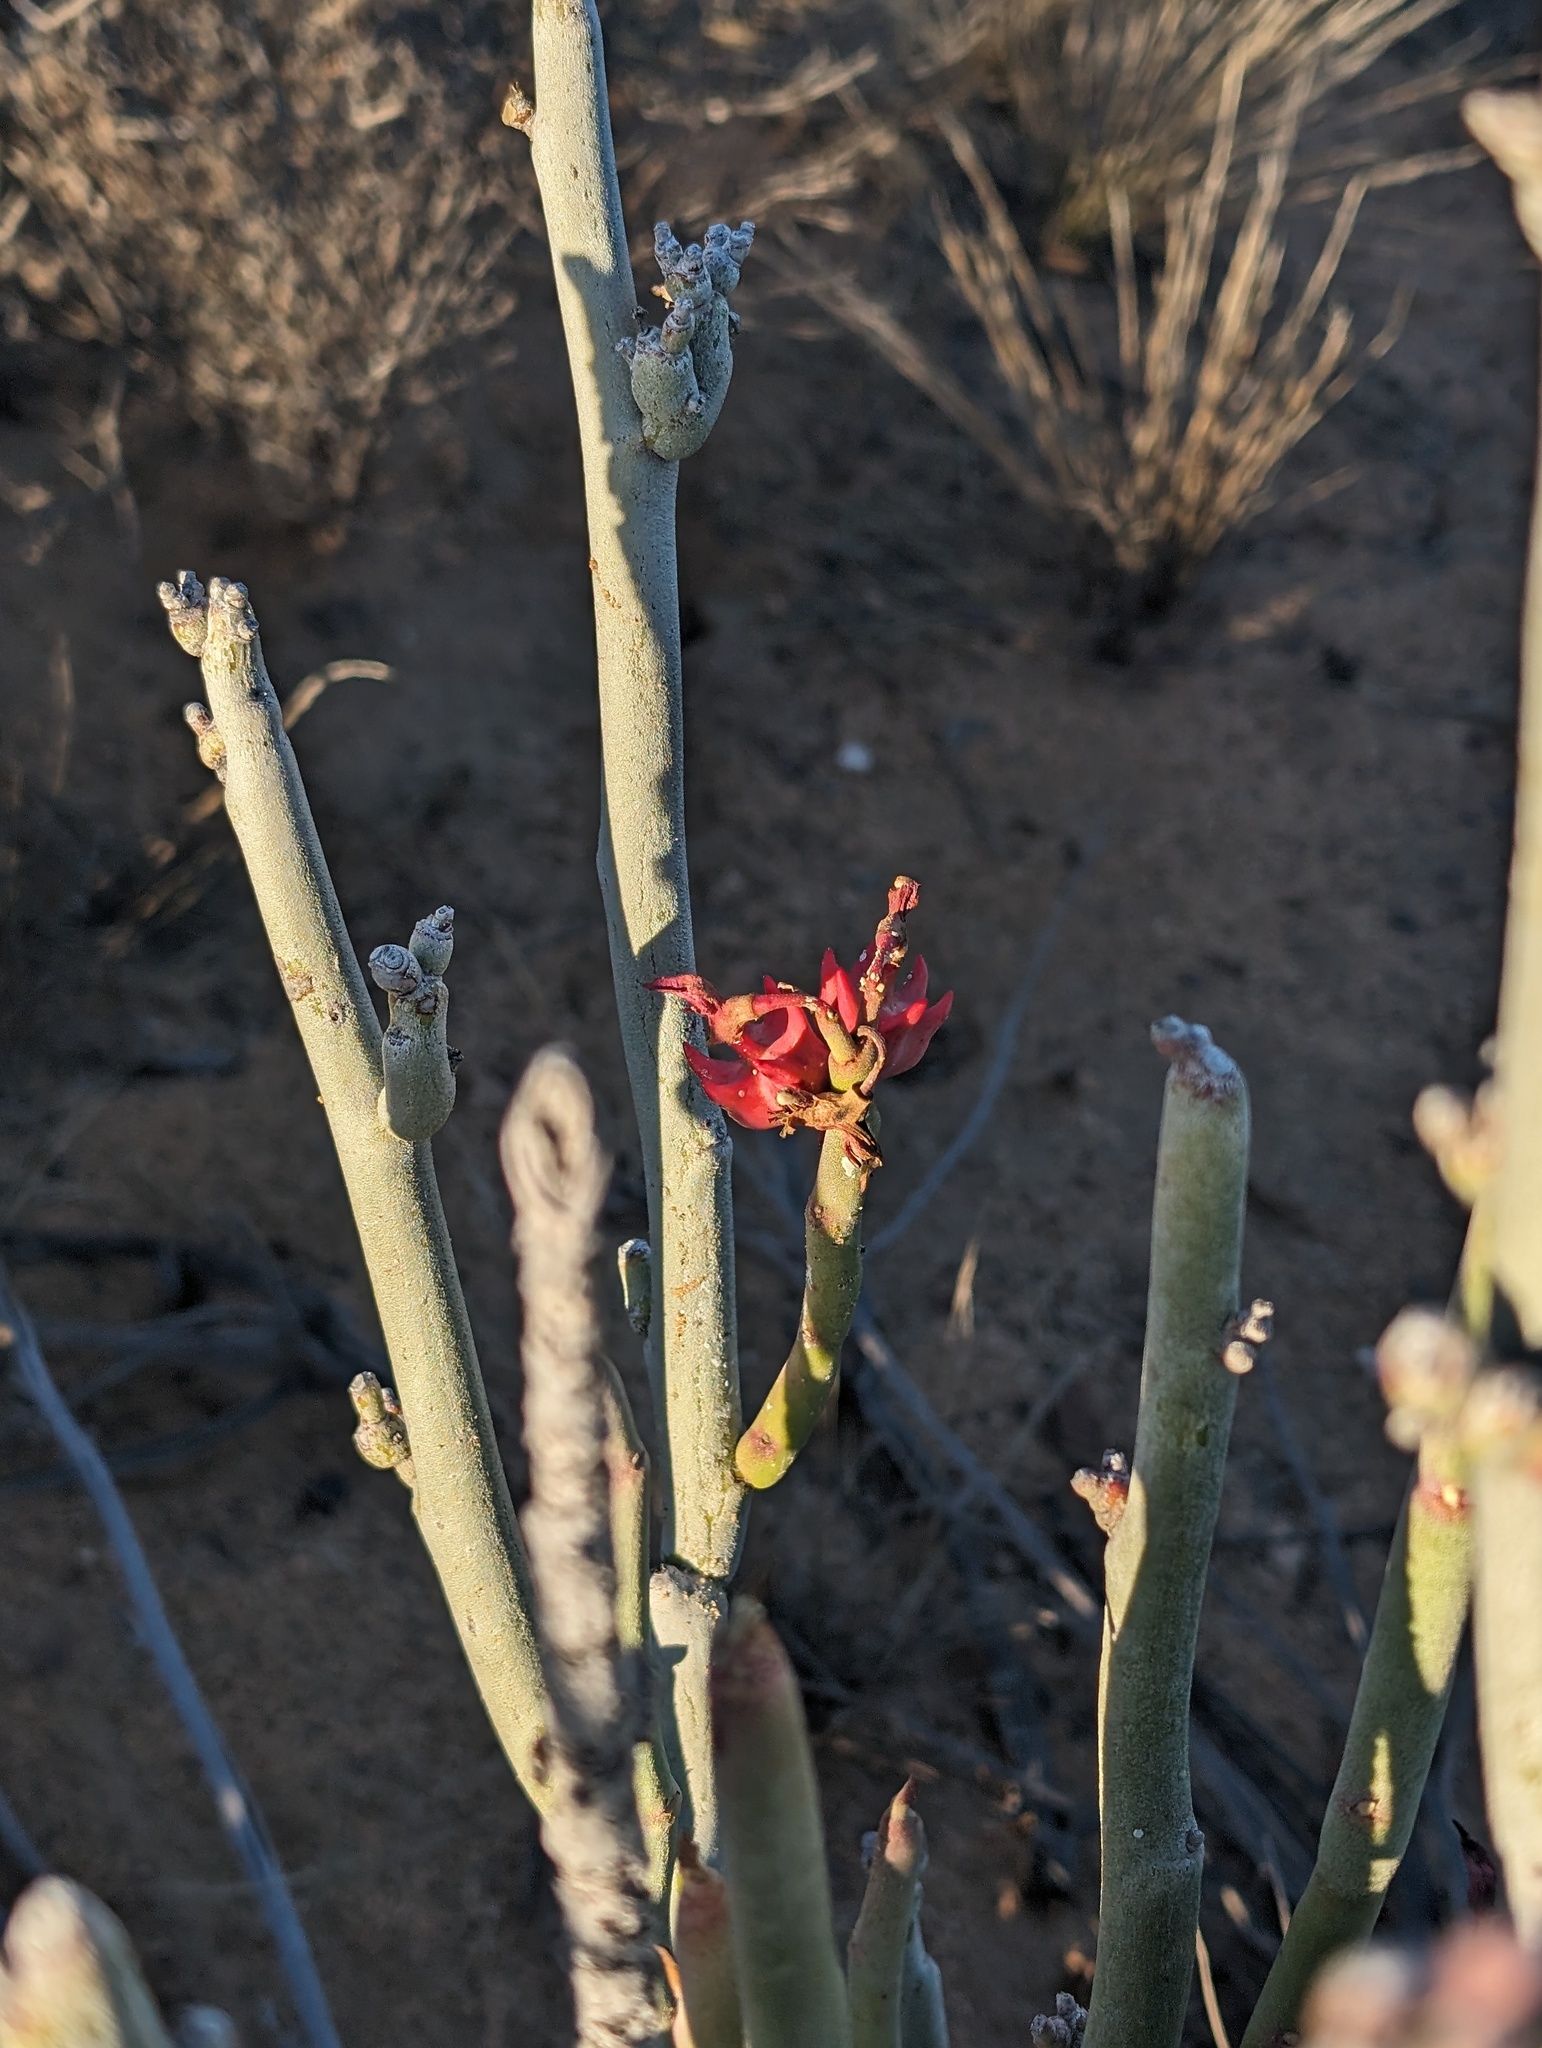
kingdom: Plantae
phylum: Tracheophyta
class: Magnoliopsida
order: Malpighiales
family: Euphorbiaceae
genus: Euphorbia
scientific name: Euphorbia lomelii
